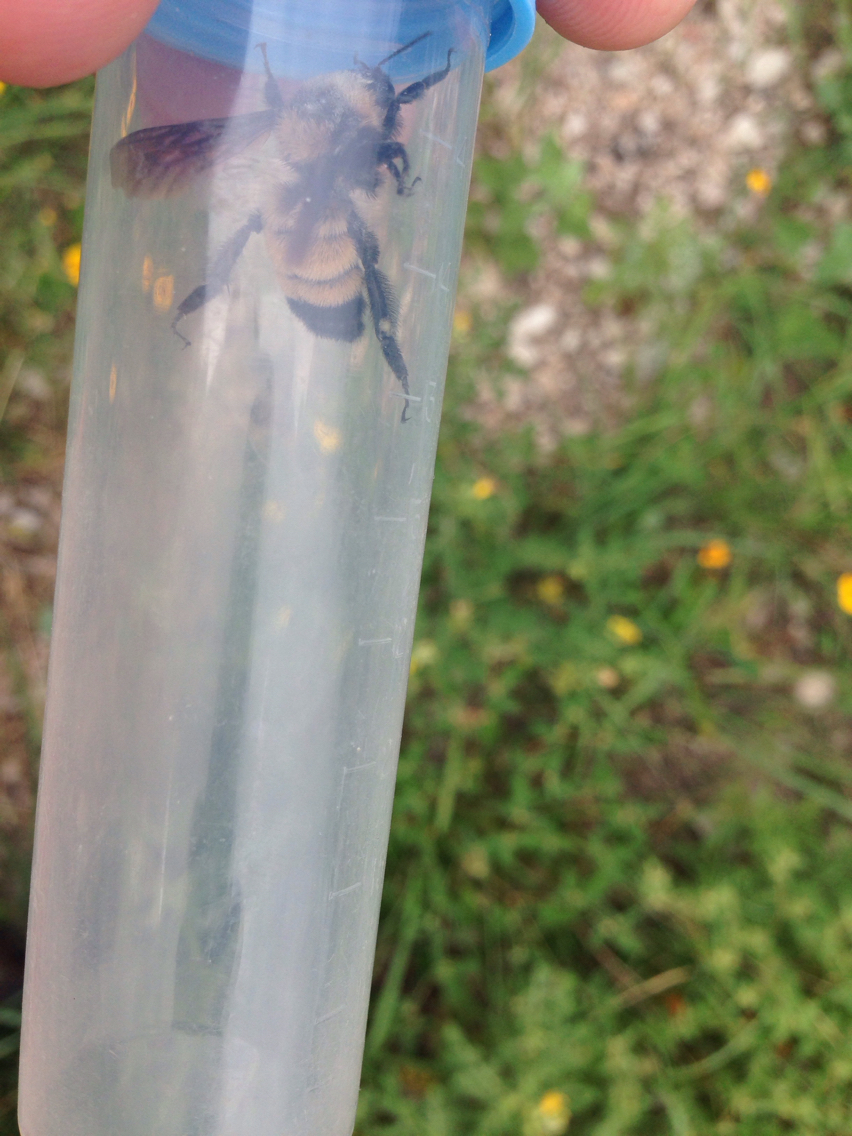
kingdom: Animalia
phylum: Arthropoda
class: Insecta
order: Hymenoptera
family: Apidae
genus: Bombus
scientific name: Bombus sonorus
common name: Sonoran bumble bee
